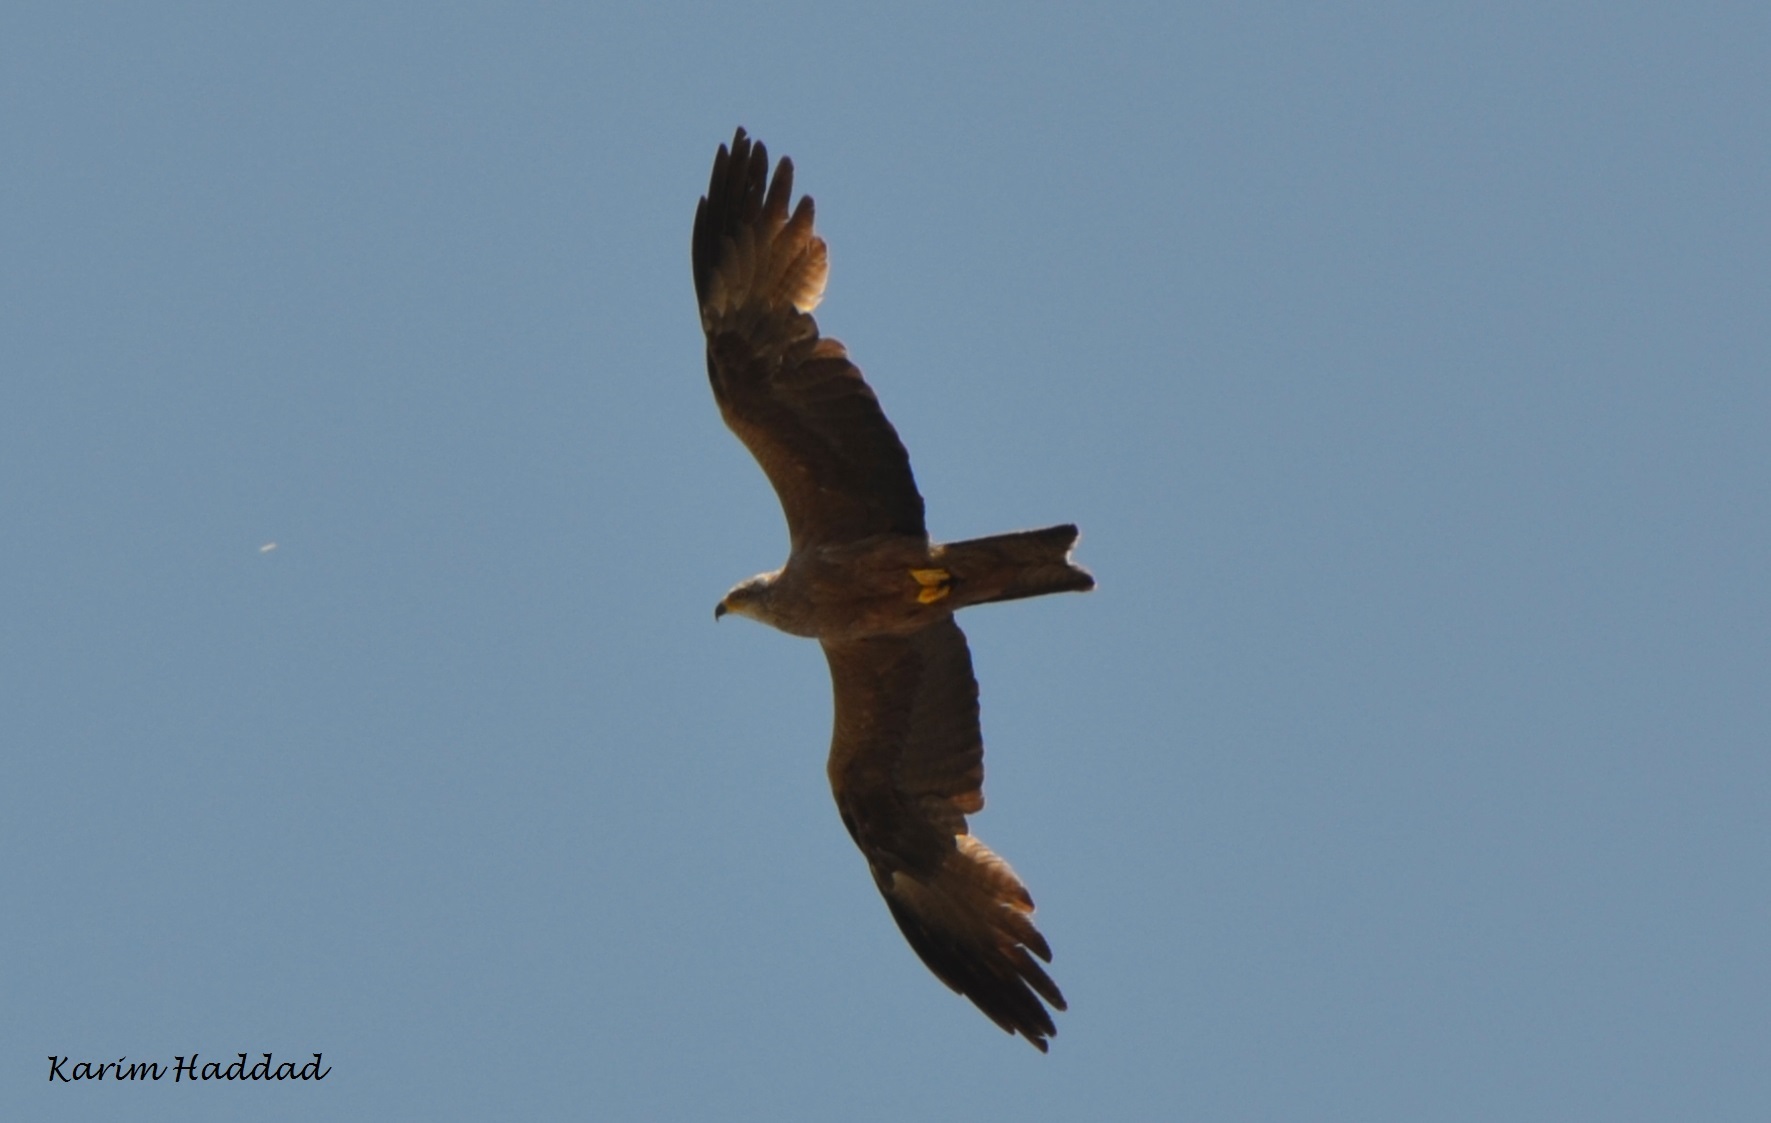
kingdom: Animalia
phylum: Chordata
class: Aves
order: Accipitriformes
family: Accipitridae
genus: Milvus
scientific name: Milvus migrans
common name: Black kite
